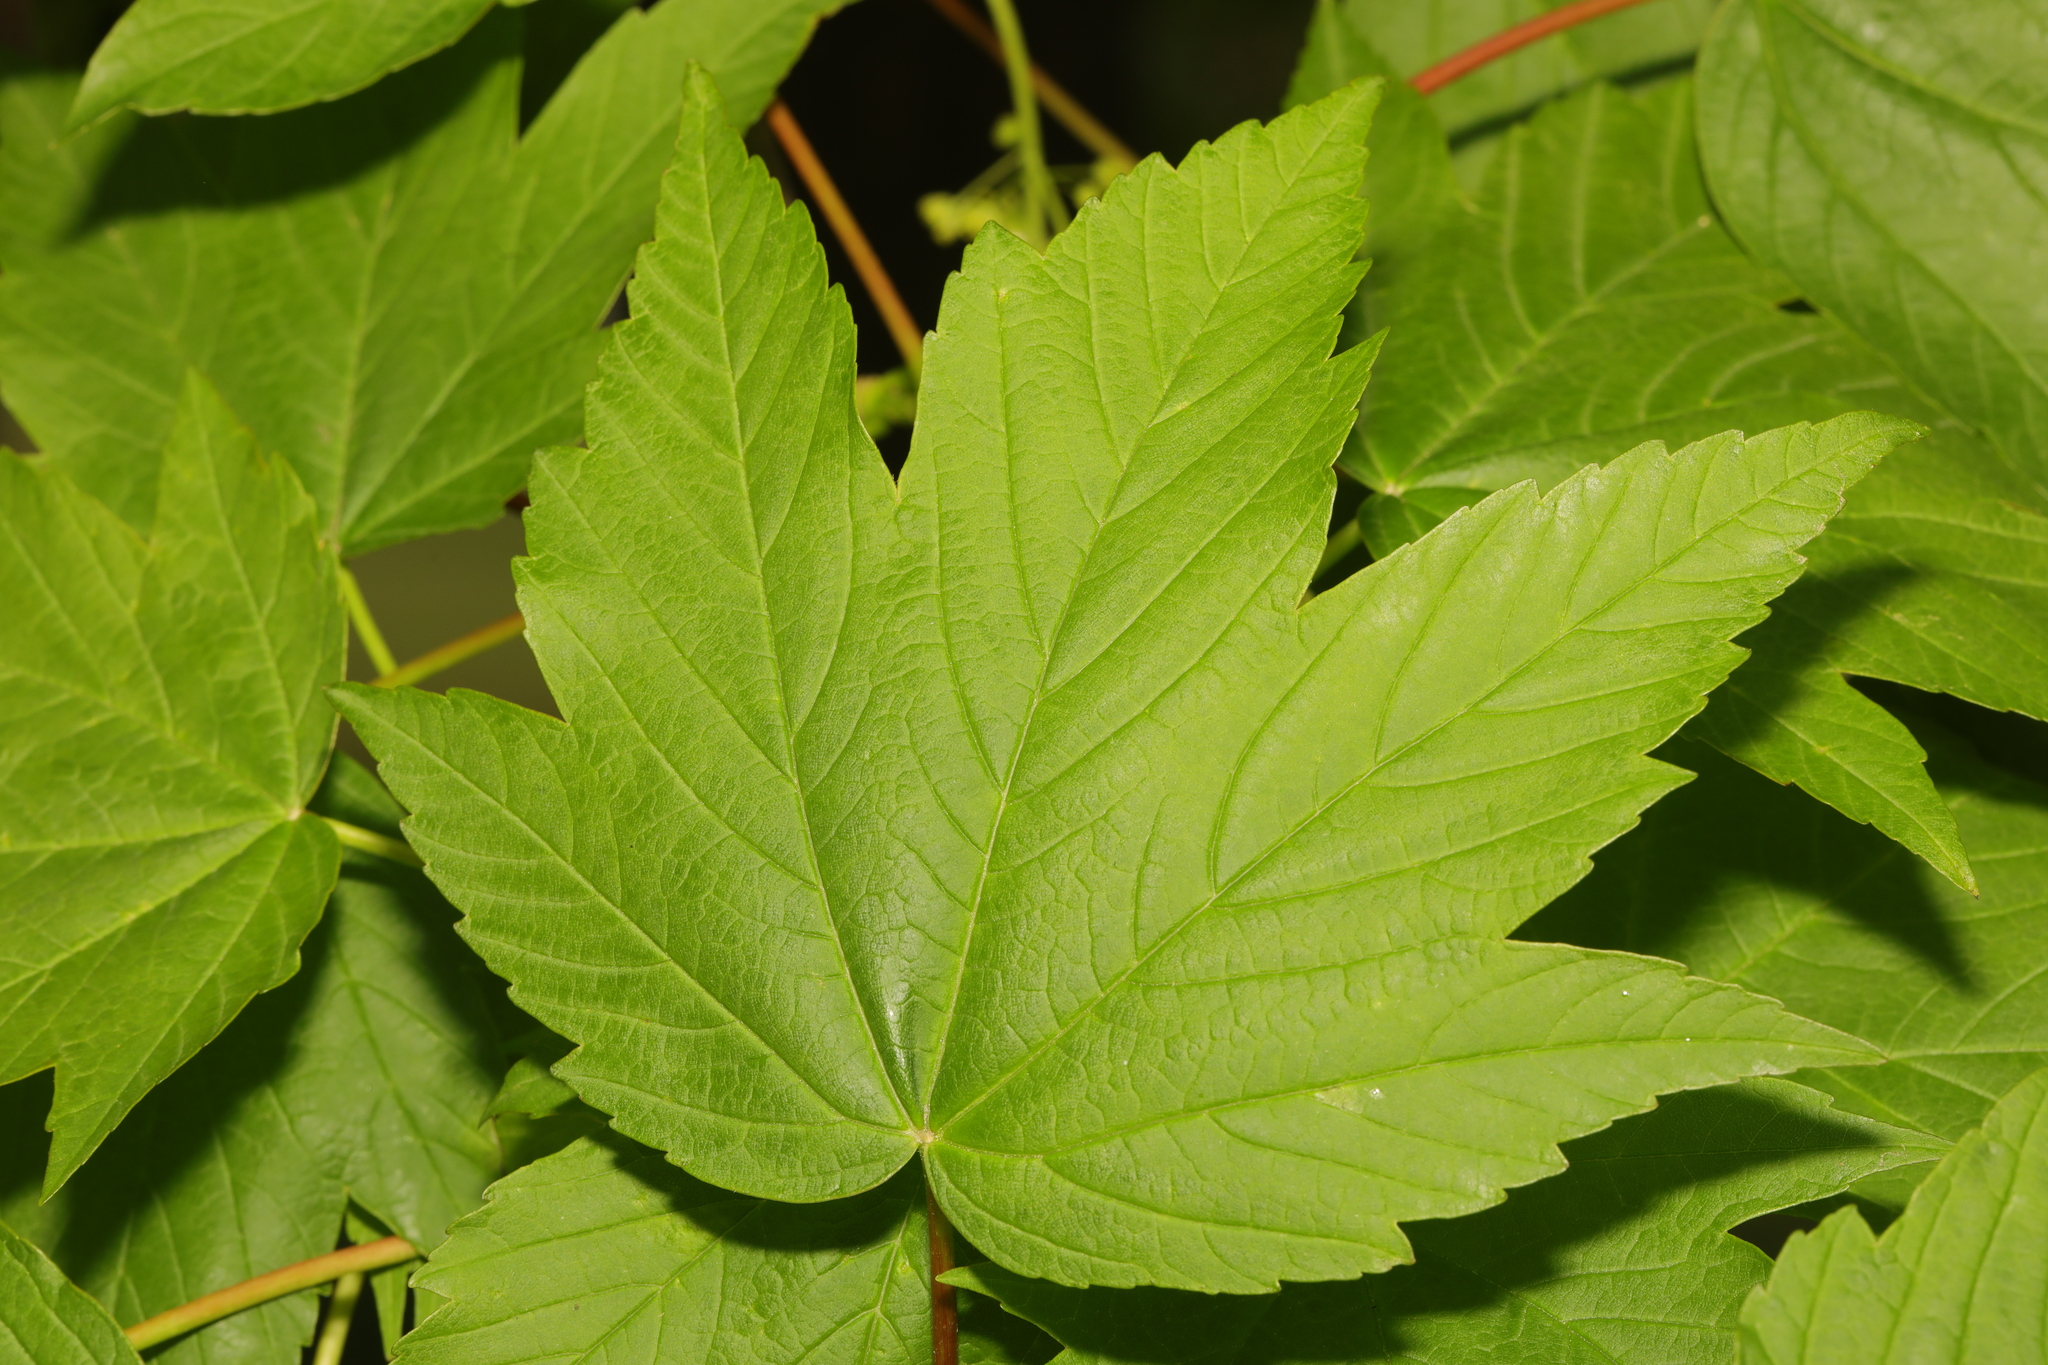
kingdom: Plantae
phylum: Tracheophyta
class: Magnoliopsida
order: Sapindales
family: Sapindaceae
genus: Acer
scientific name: Acer pseudoplatanus
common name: Sycamore
